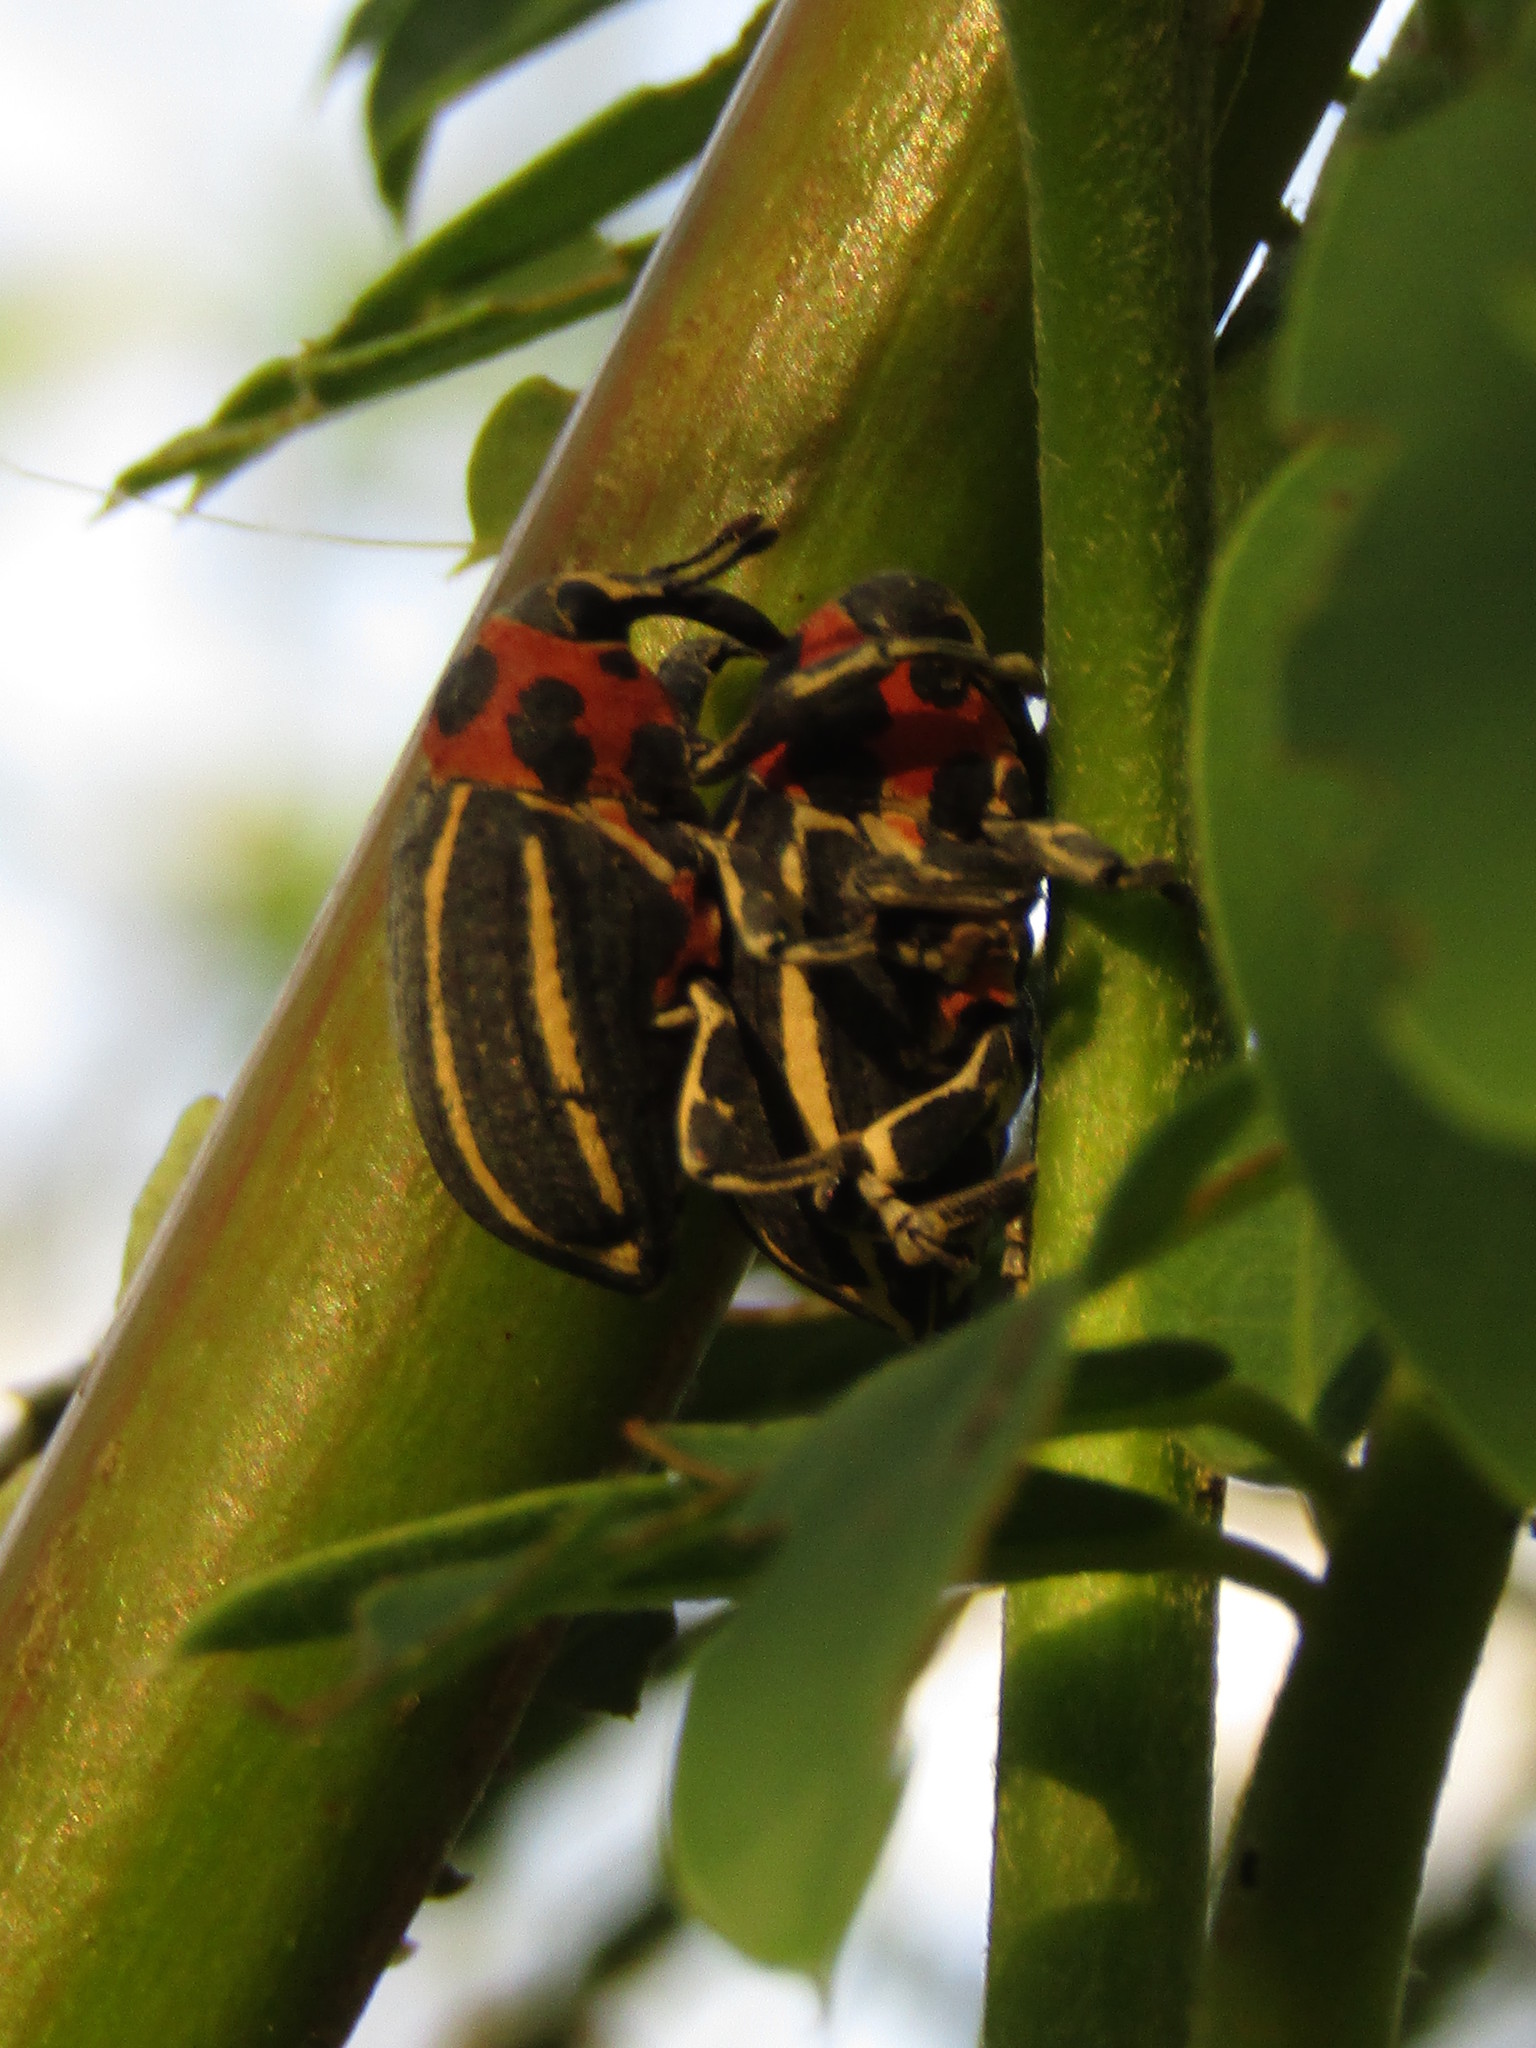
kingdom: Animalia
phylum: Arthropoda
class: Insecta
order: Coleoptera
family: Curculionidae
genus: Neodiplogrammus
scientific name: Neodiplogrammus
